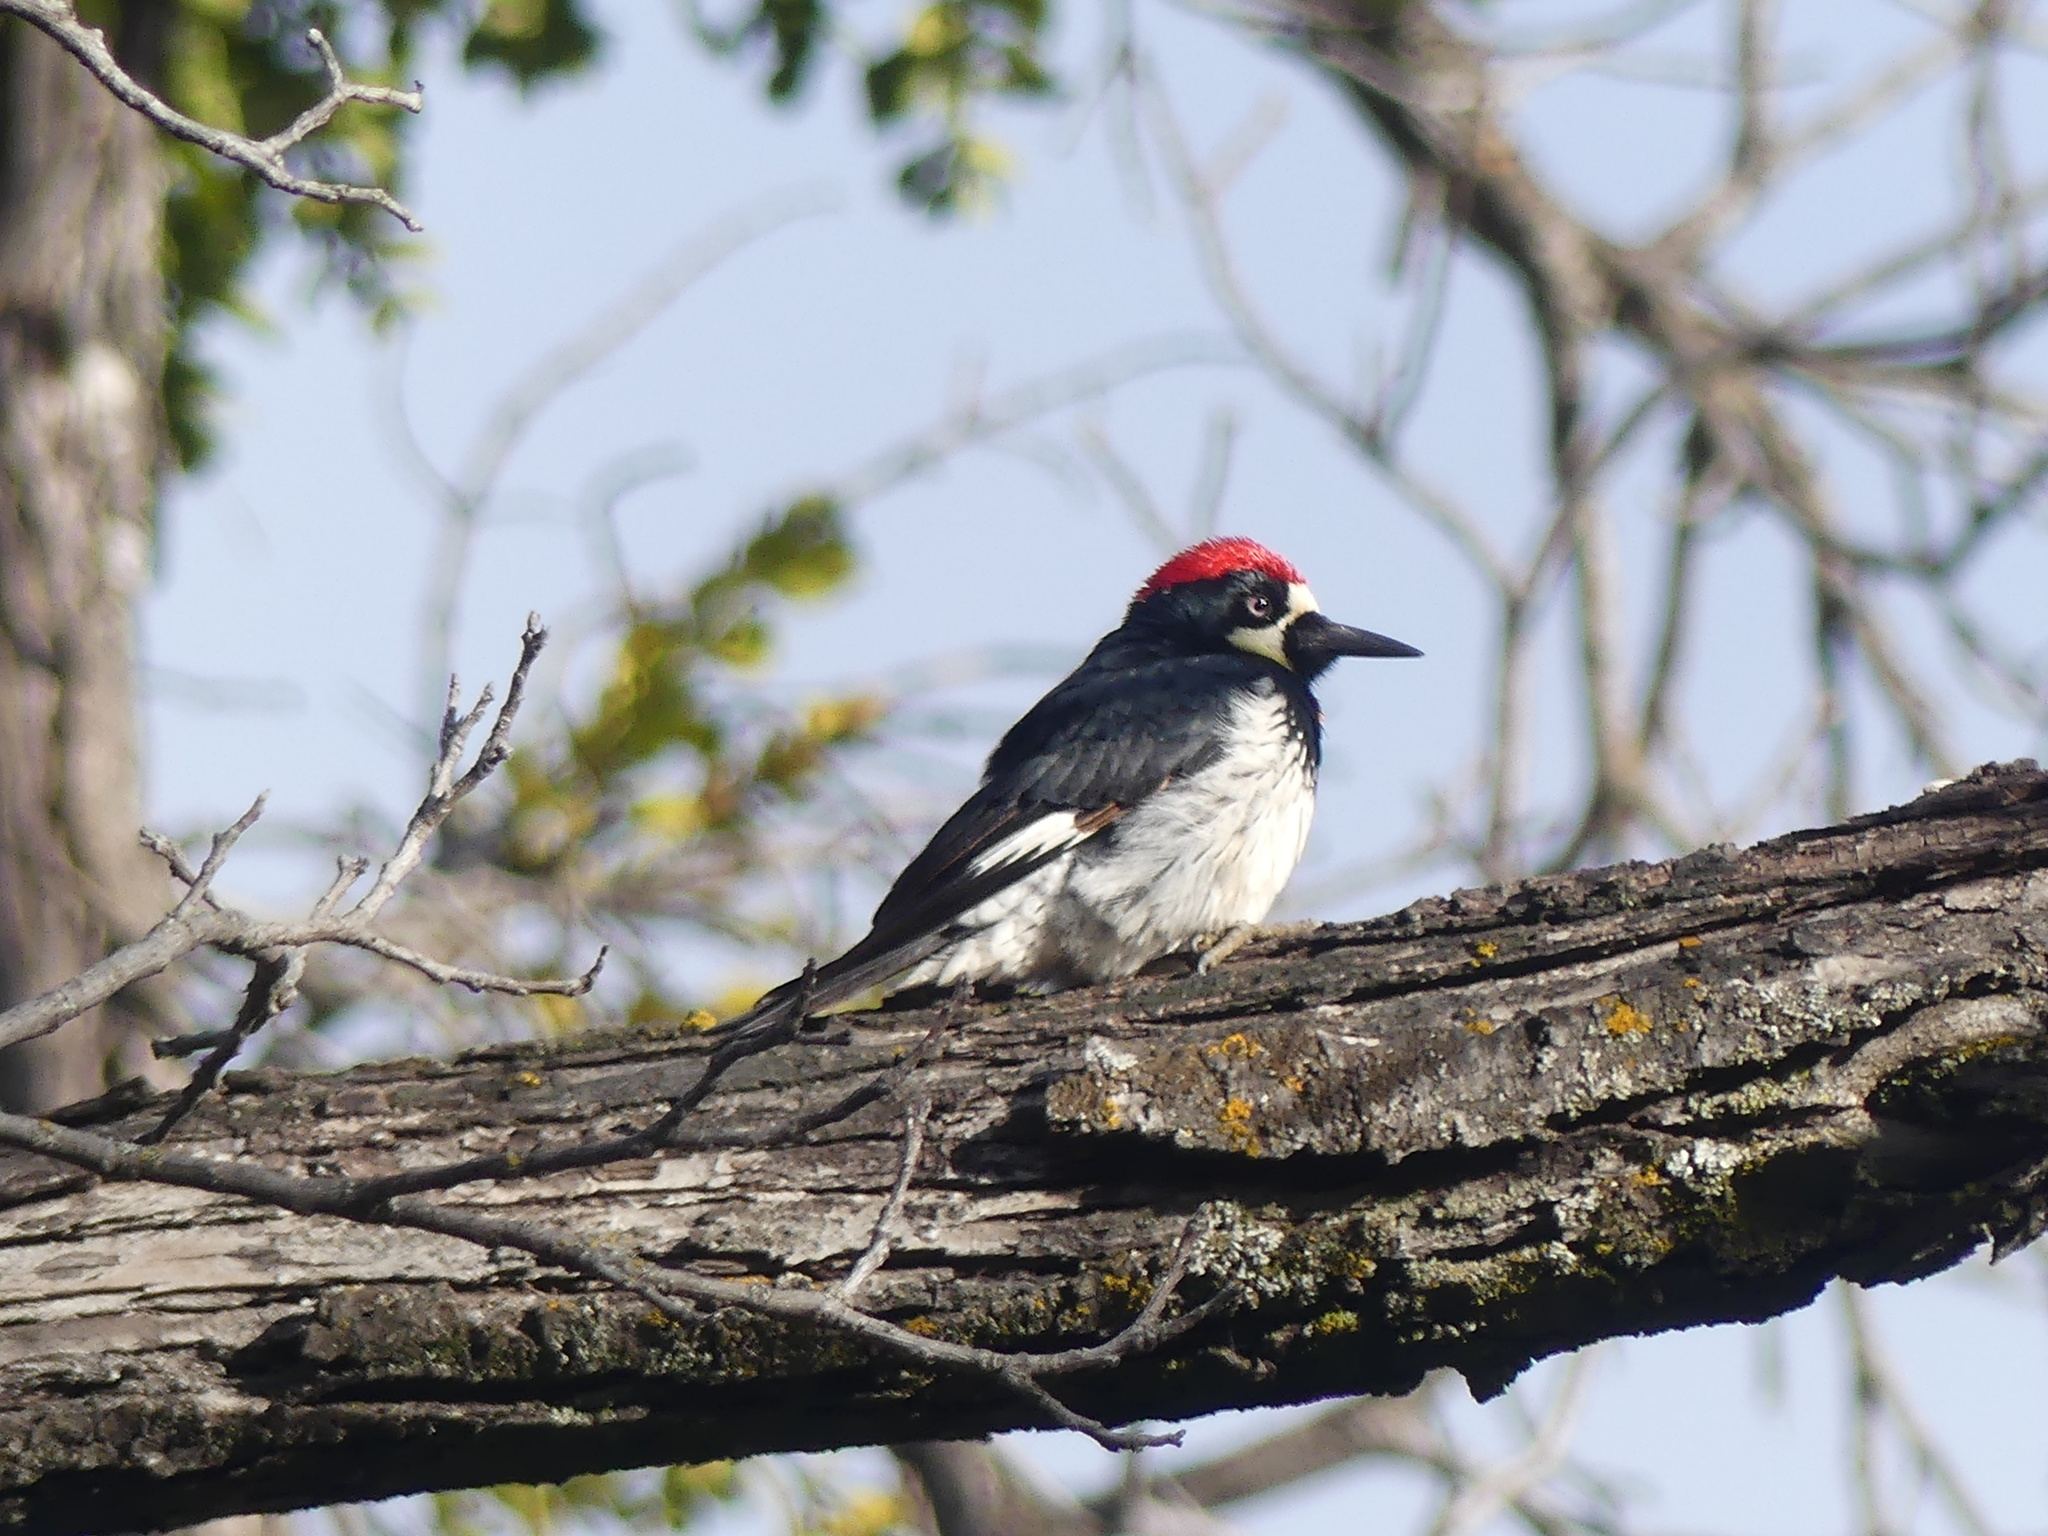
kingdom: Animalia
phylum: Chordata
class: Aves
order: Piciformes
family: Picidae
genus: Melanerpes
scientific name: Melanerpes formicivorus
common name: Acorn woodpecker
